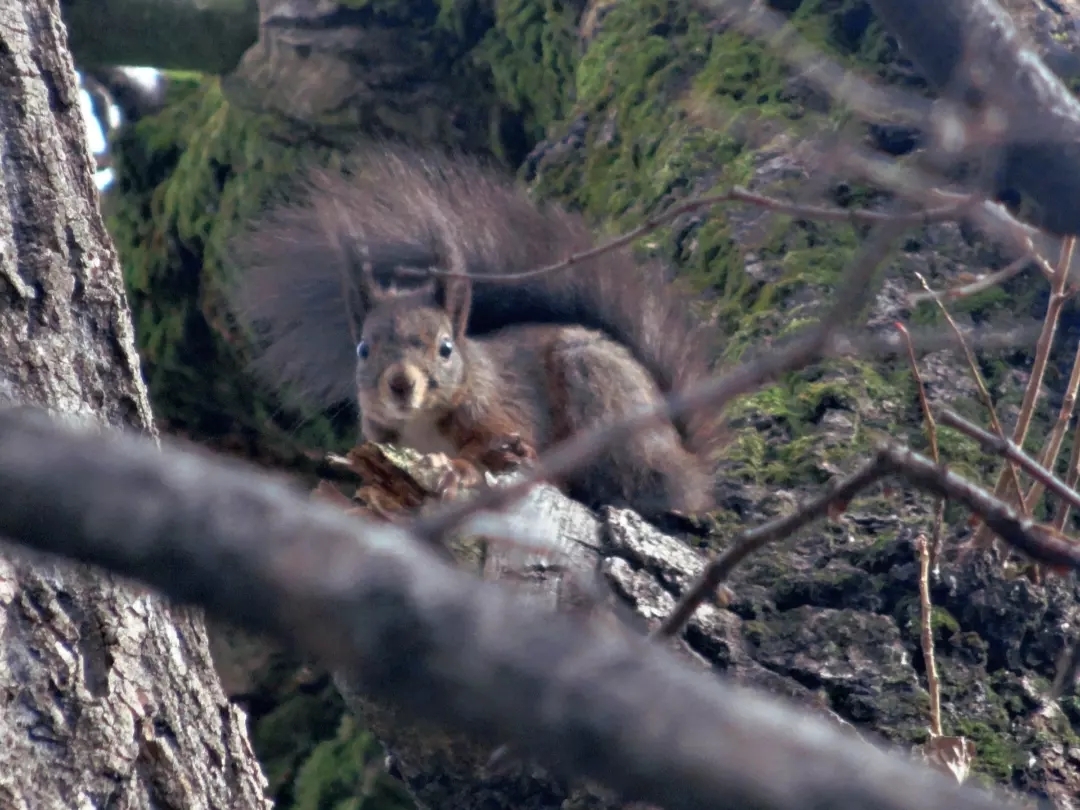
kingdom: Animalia
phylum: Chordata
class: Mammalia
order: Rodentia
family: Sciuridae
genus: Sciurus
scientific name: Sciurus vulgaris
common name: Eurasian red squirrel
